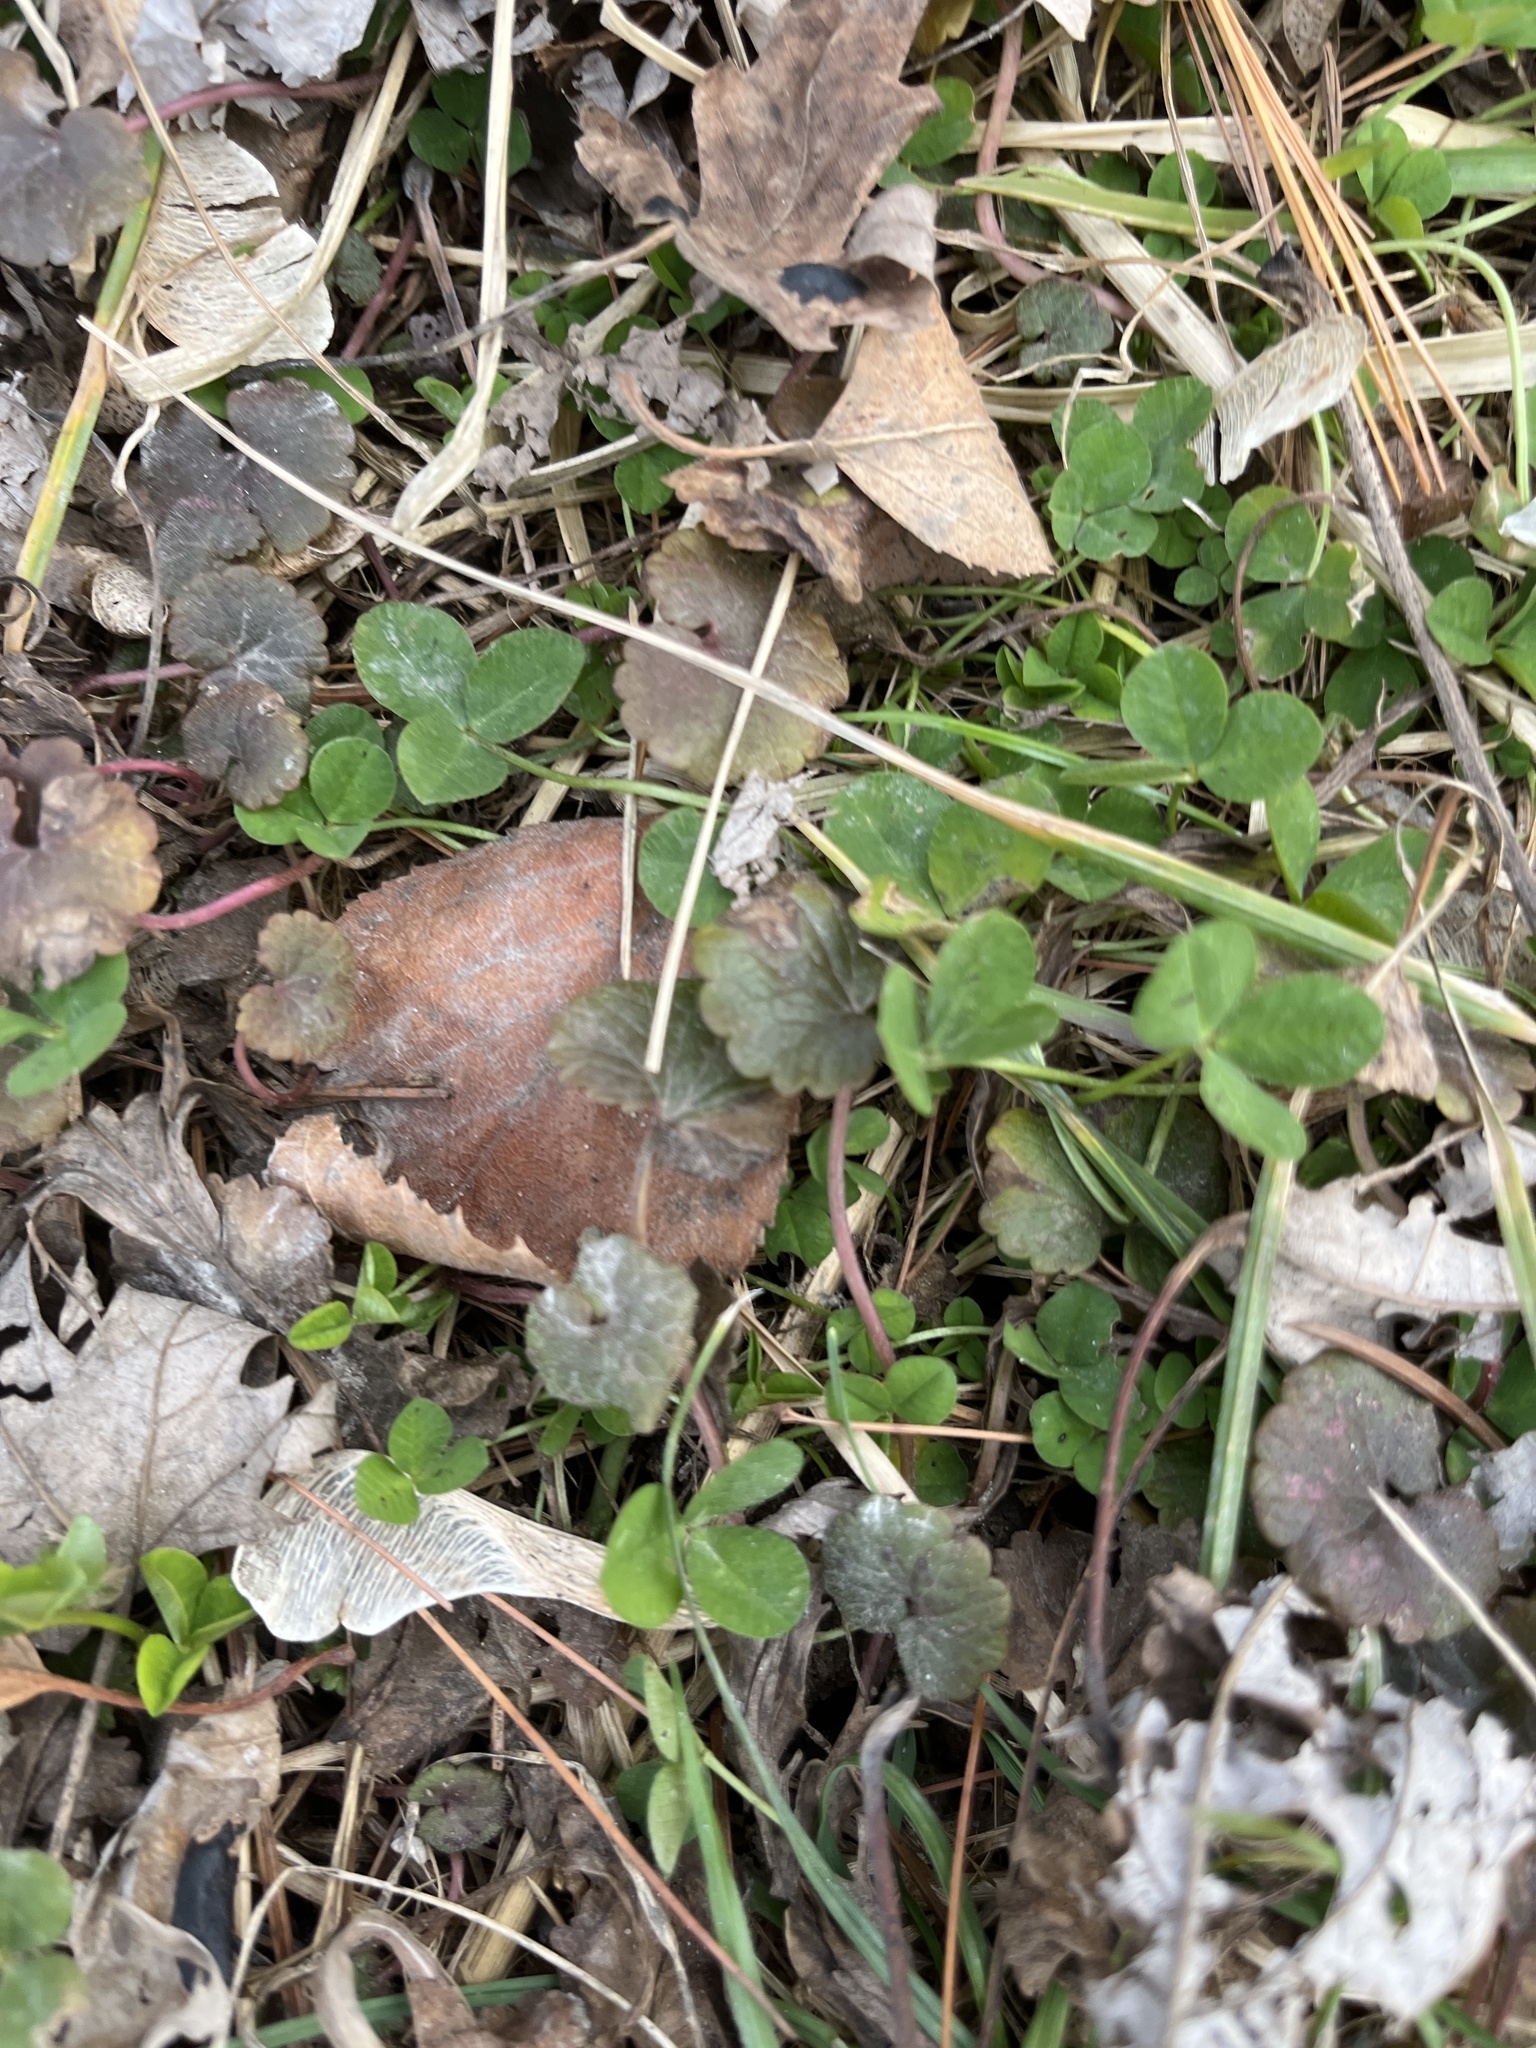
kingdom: Plantae
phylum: Tracheophyta
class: Magnoliopsida
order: Fabales
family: Fabaceae
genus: Trifolium
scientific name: Trifolium repens
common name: White clover
